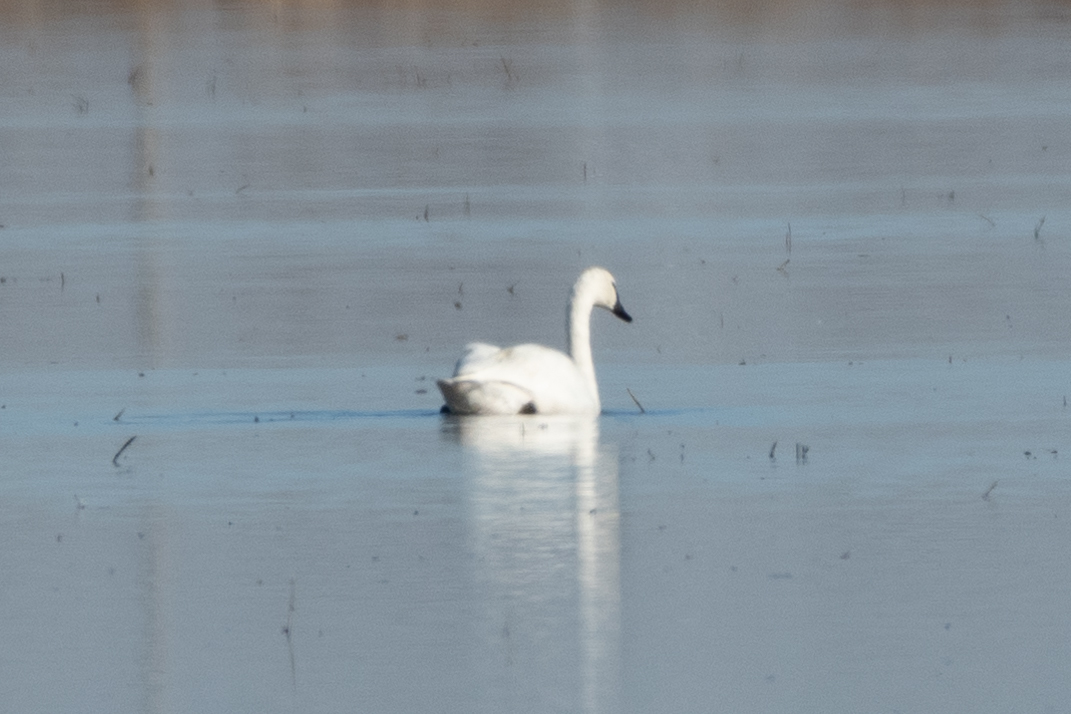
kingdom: Animalia
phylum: Chordata
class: Aves
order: Anseriformes
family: Anatidae
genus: Cygnus
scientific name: Cygnus columbianus
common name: Tundra swan
